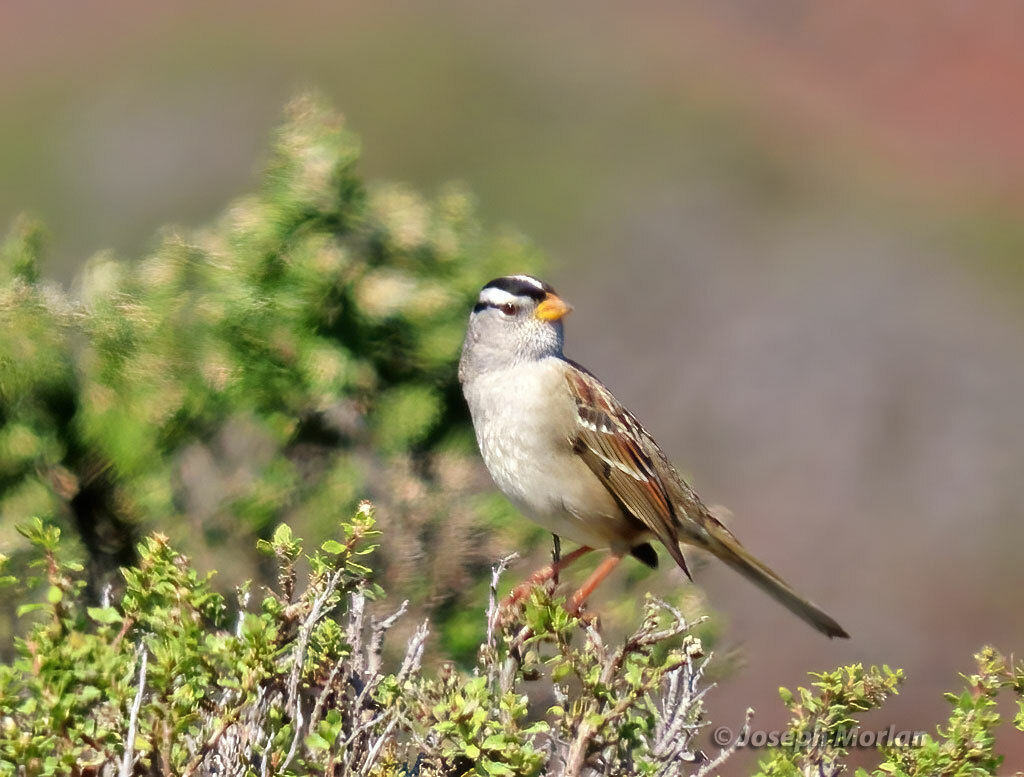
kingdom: Animalia
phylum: Chordata
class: Aves
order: Passeriformes
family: Passerellidae
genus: Zonotrichia
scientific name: Zonotrichia leucophrys
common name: White-crowned sparrow
